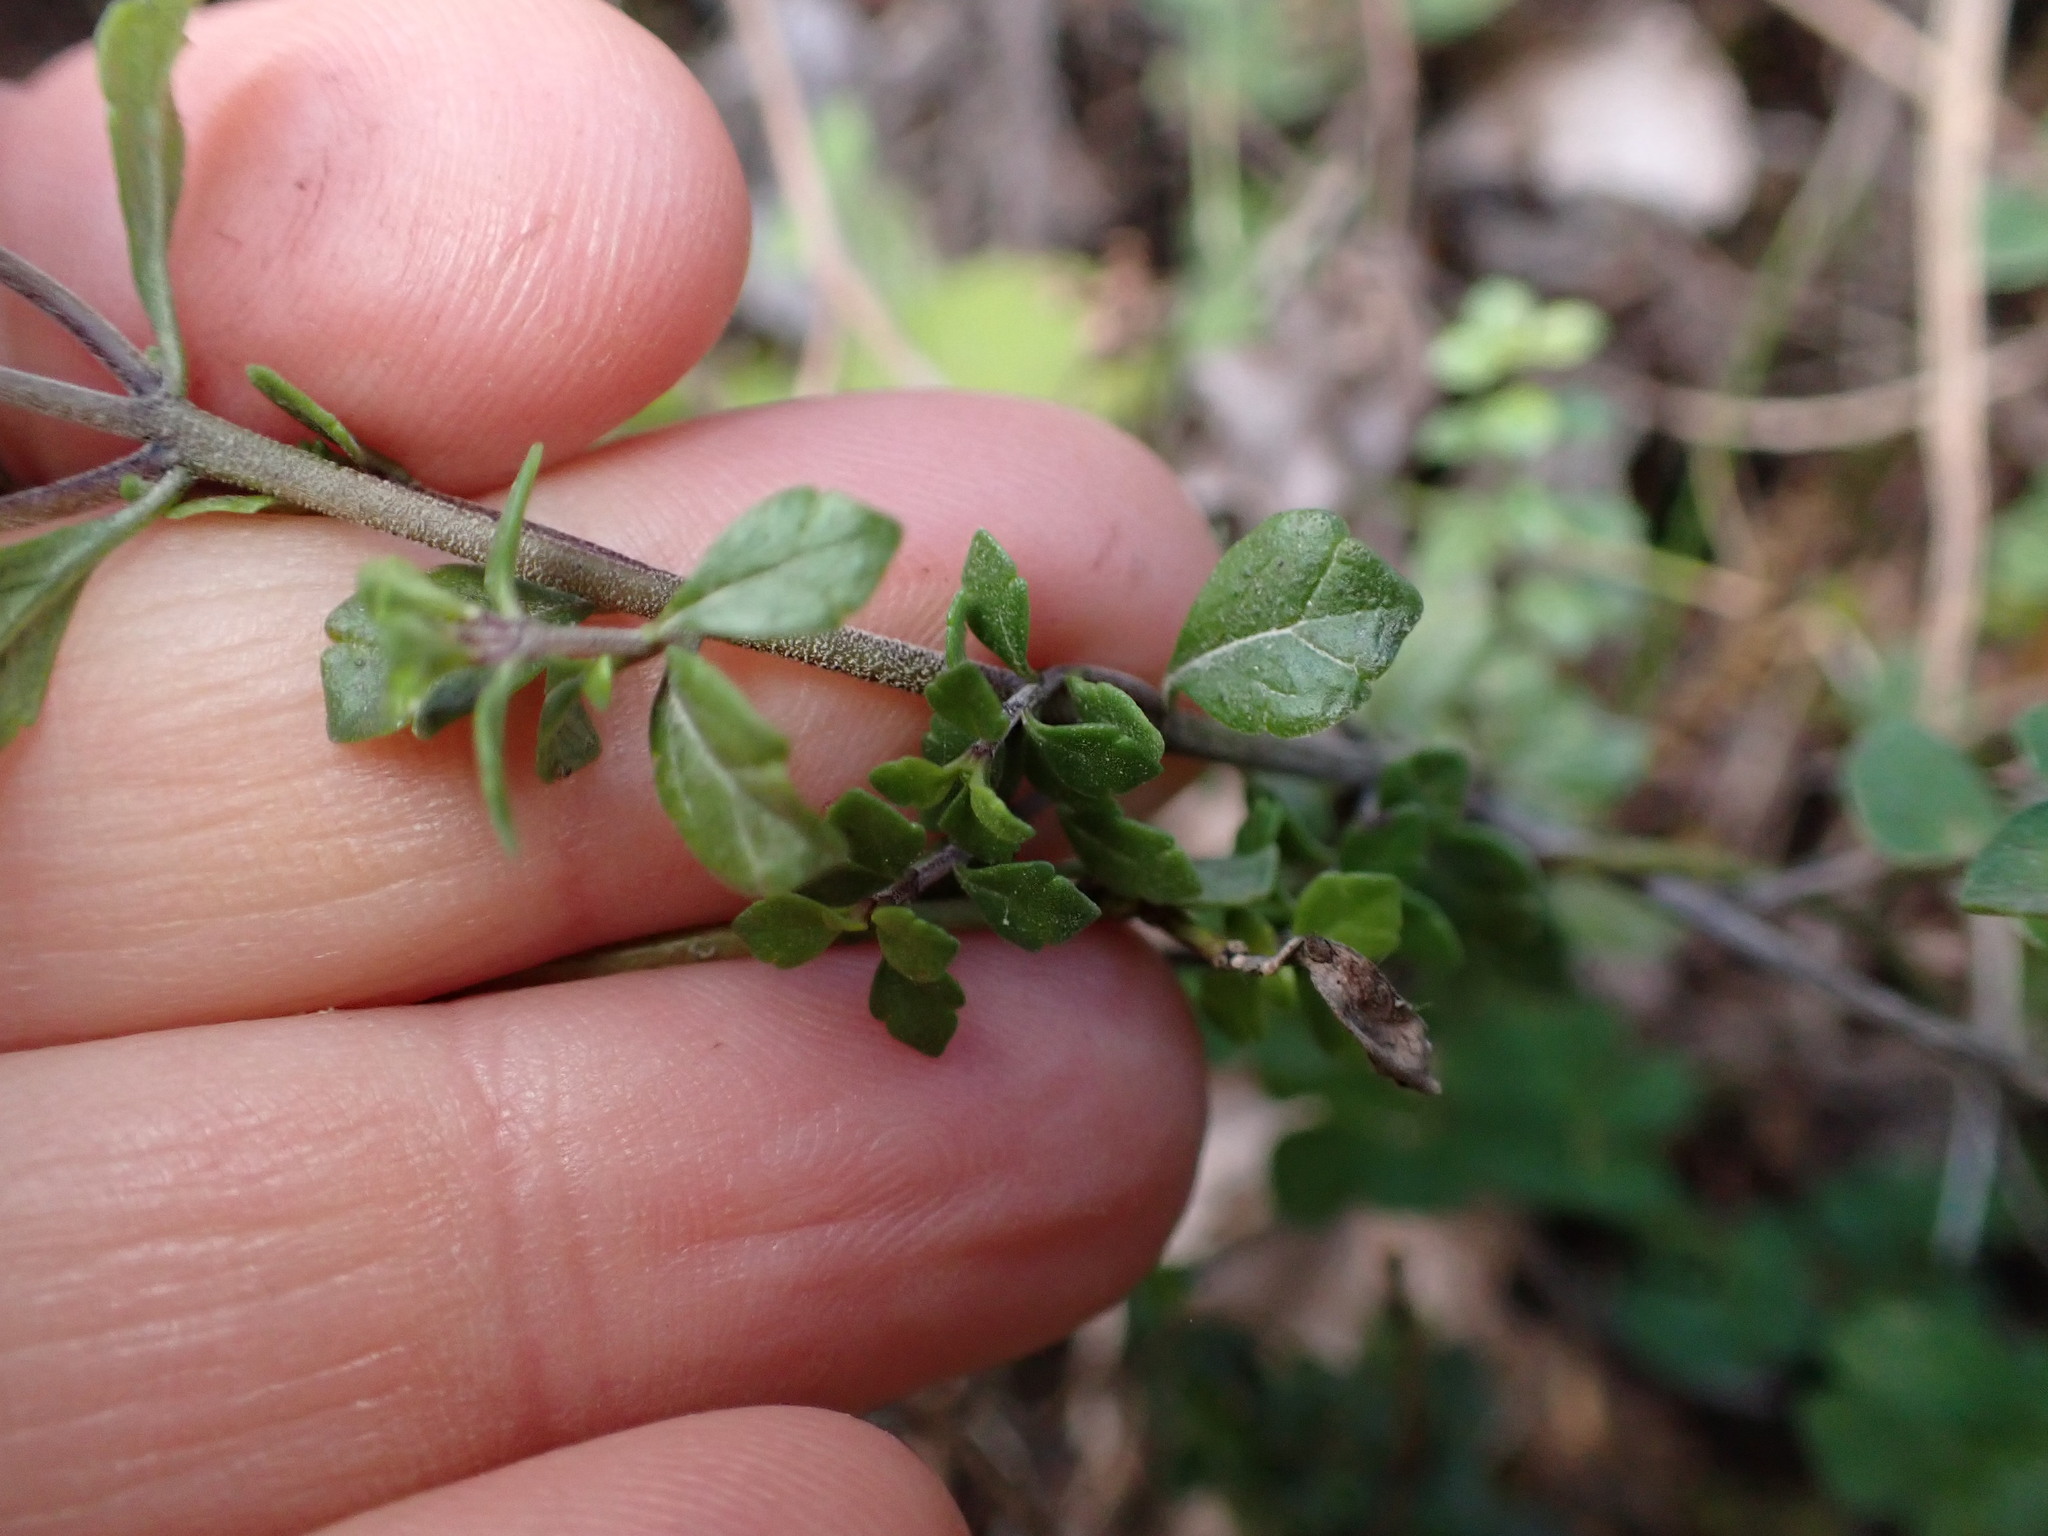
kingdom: Plantae
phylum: Tracheophyta
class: Magnoliopsida
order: Lamiales
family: Orobanchaceae
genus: Euphrasia
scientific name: Euphrasia cuneata
